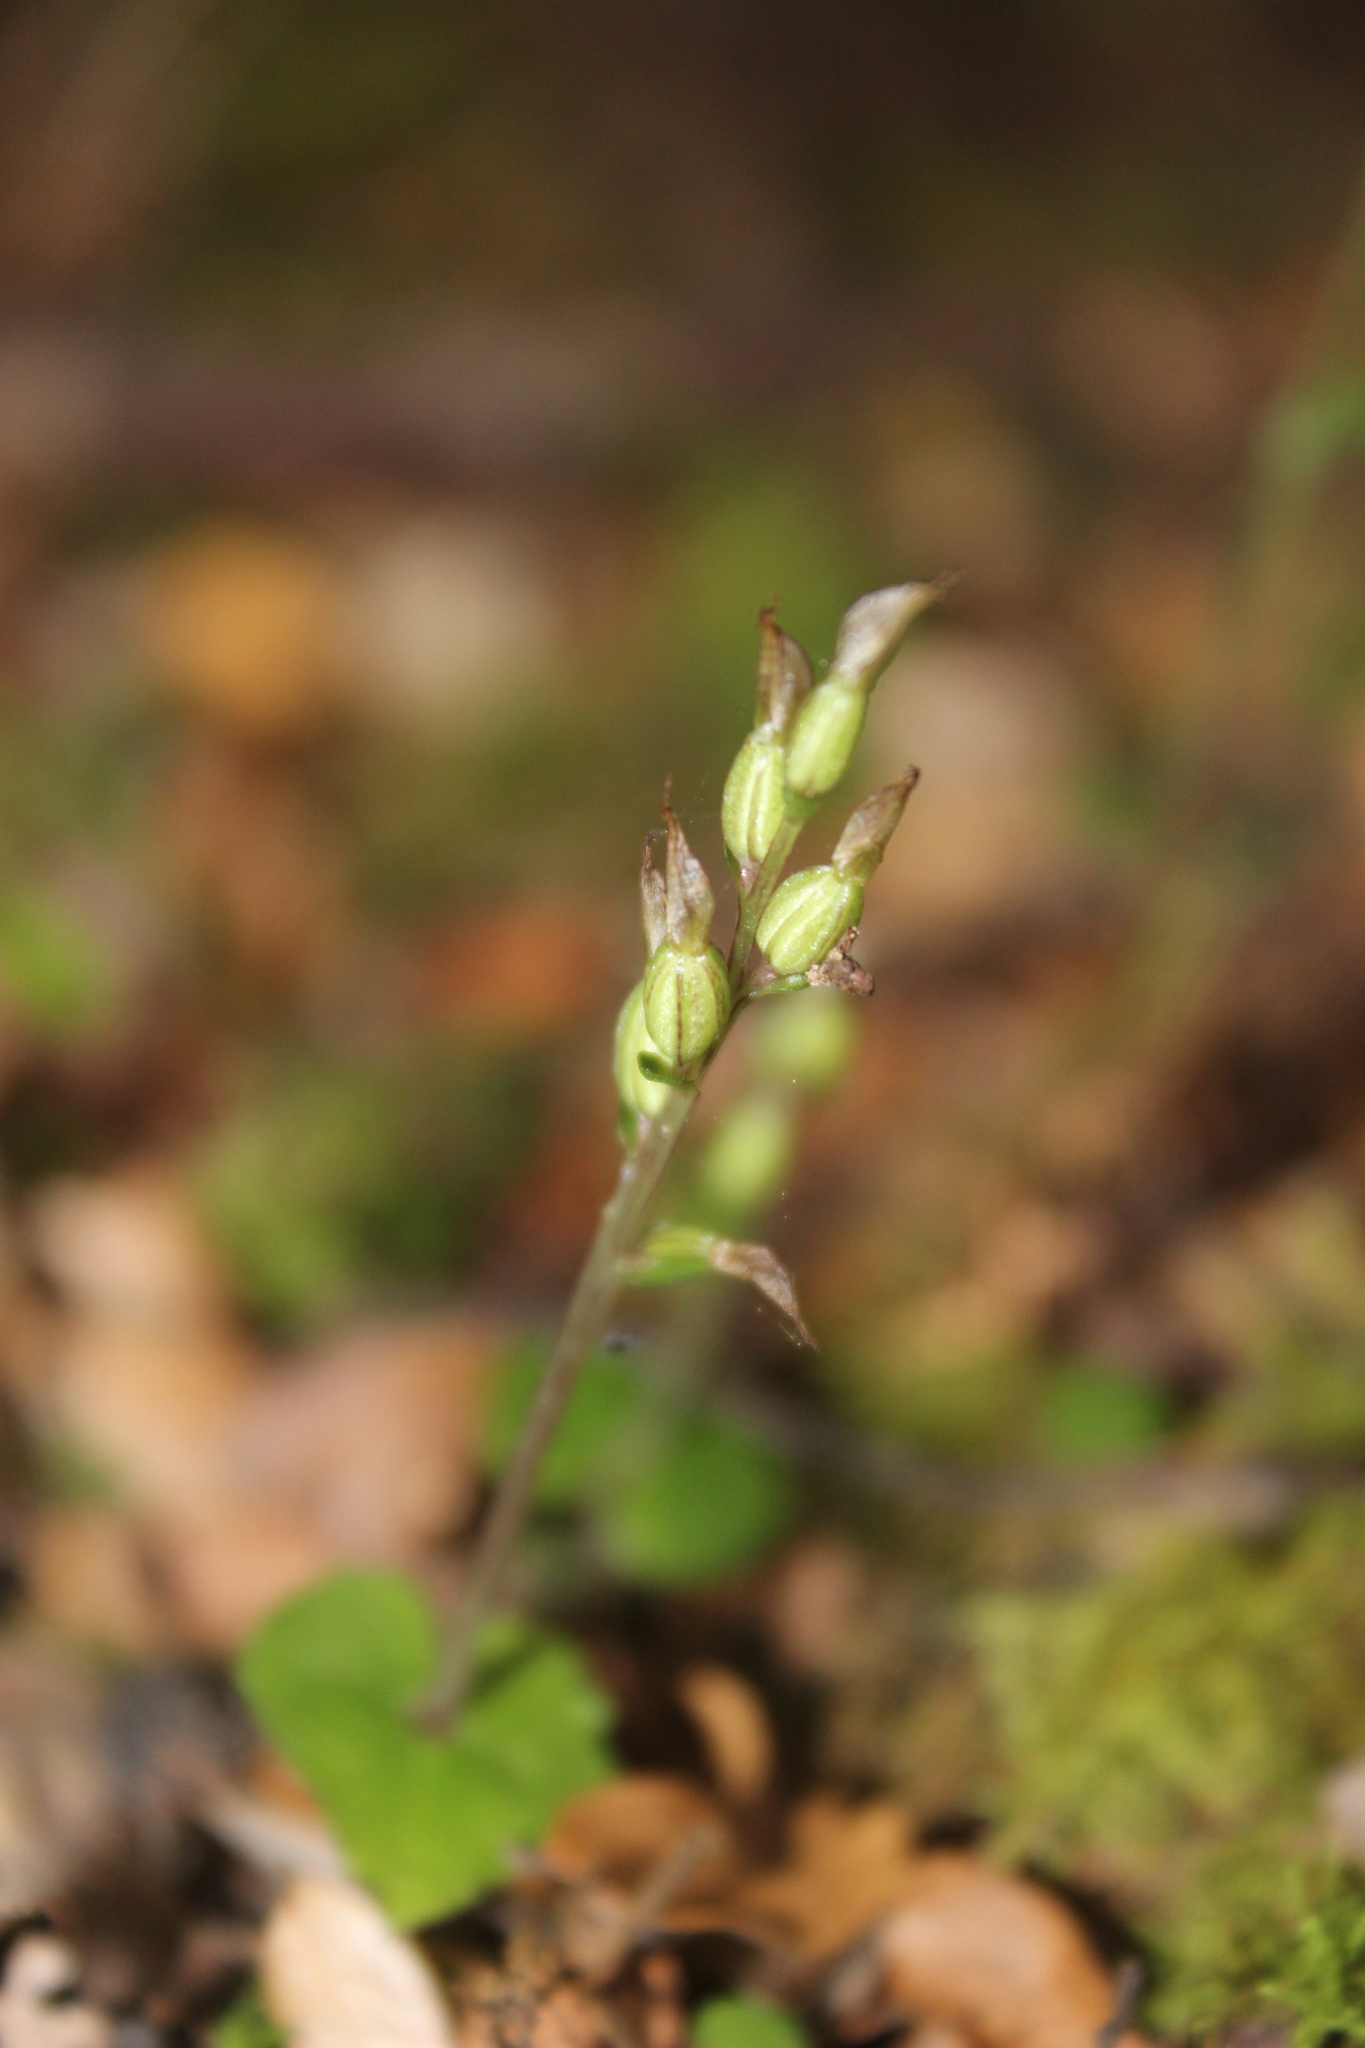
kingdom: Plantae
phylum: Tracheophyta
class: Liliopsida
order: Asparagales
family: Orchidaceae
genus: Acianthus
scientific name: Acianthus sinclairii
